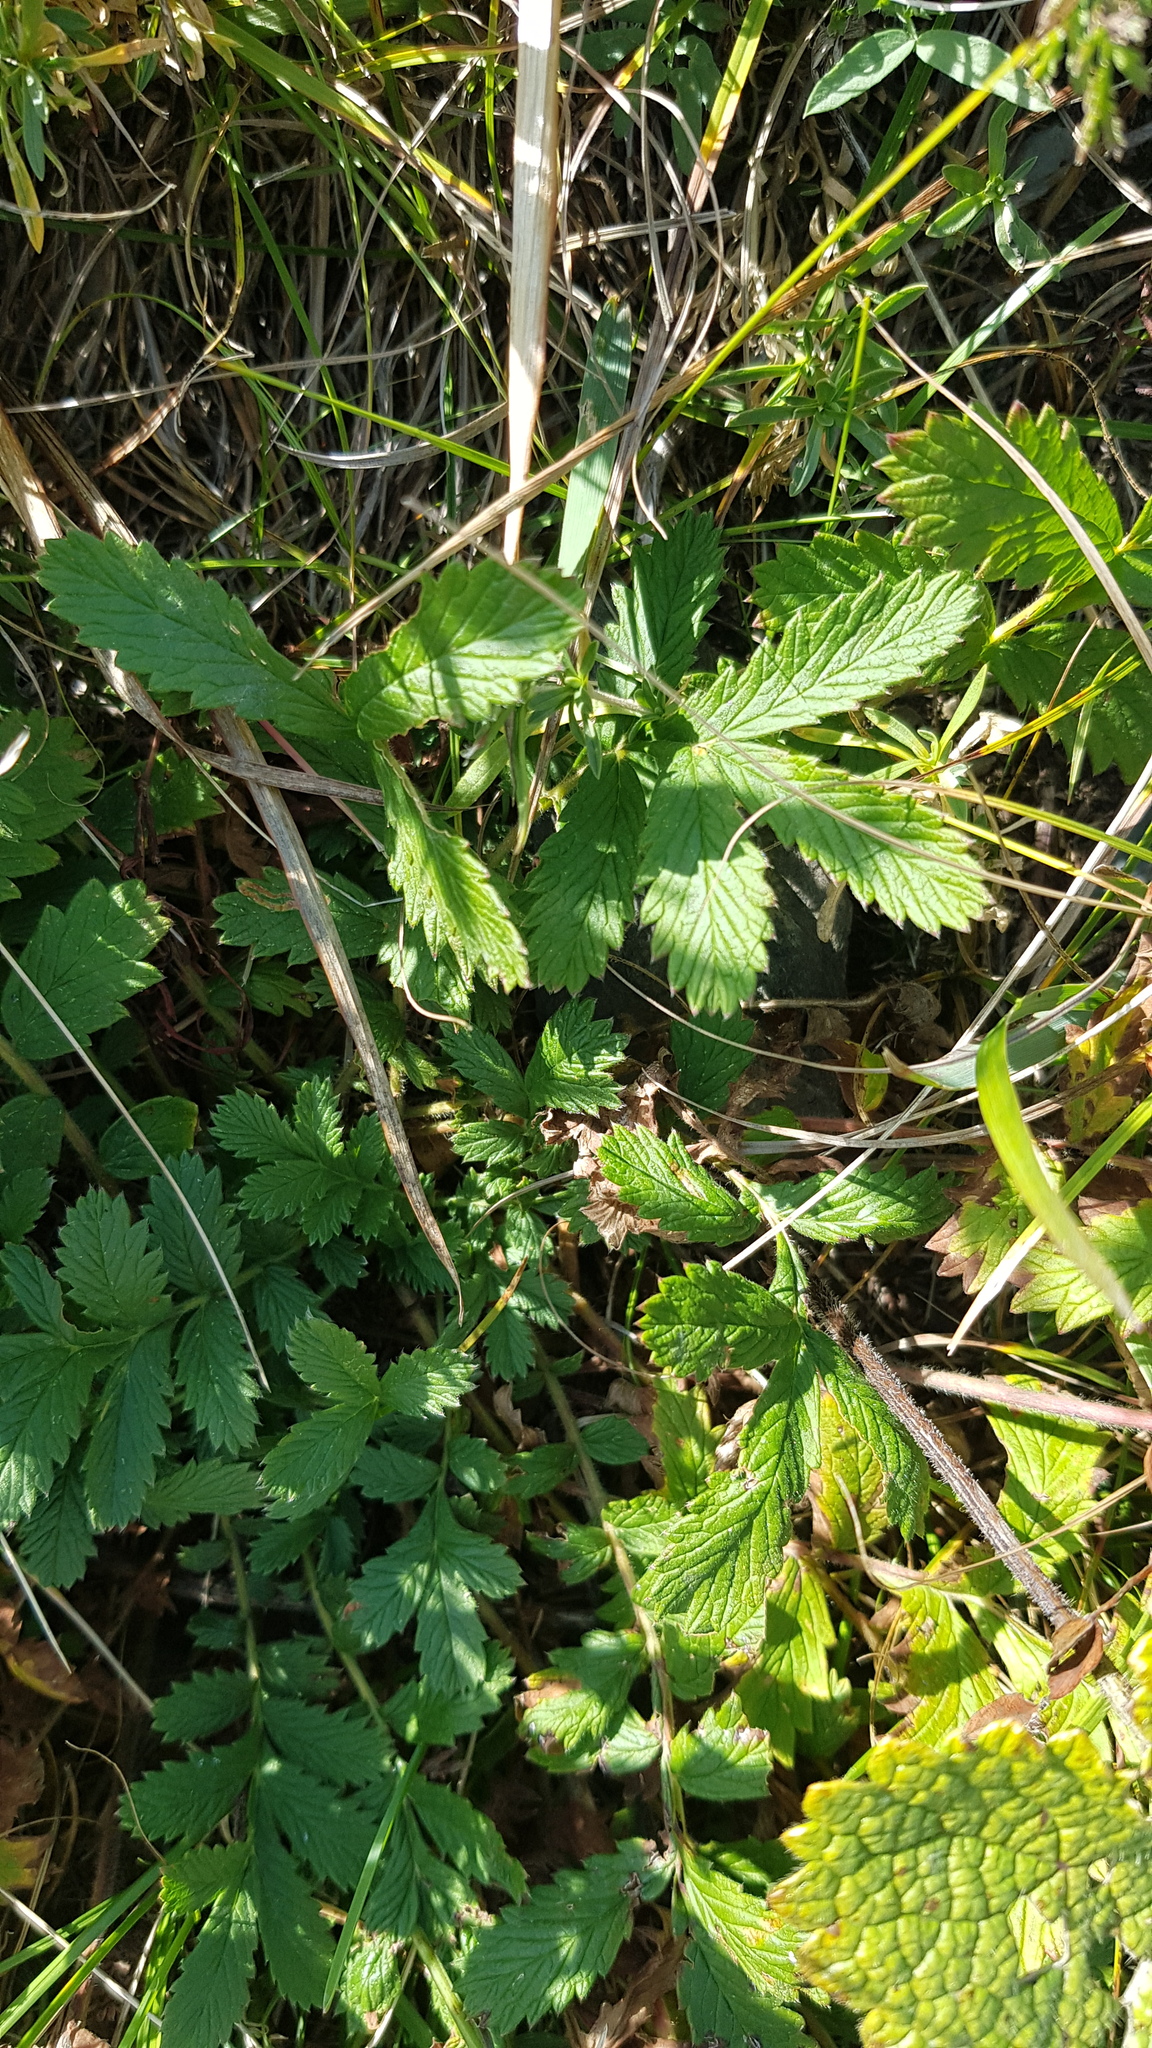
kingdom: Plantae
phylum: Tracheophyta
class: Magnoliopsida
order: Rosales
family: Rosaceae
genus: Potentilla
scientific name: Potentilla tanacetifolia
